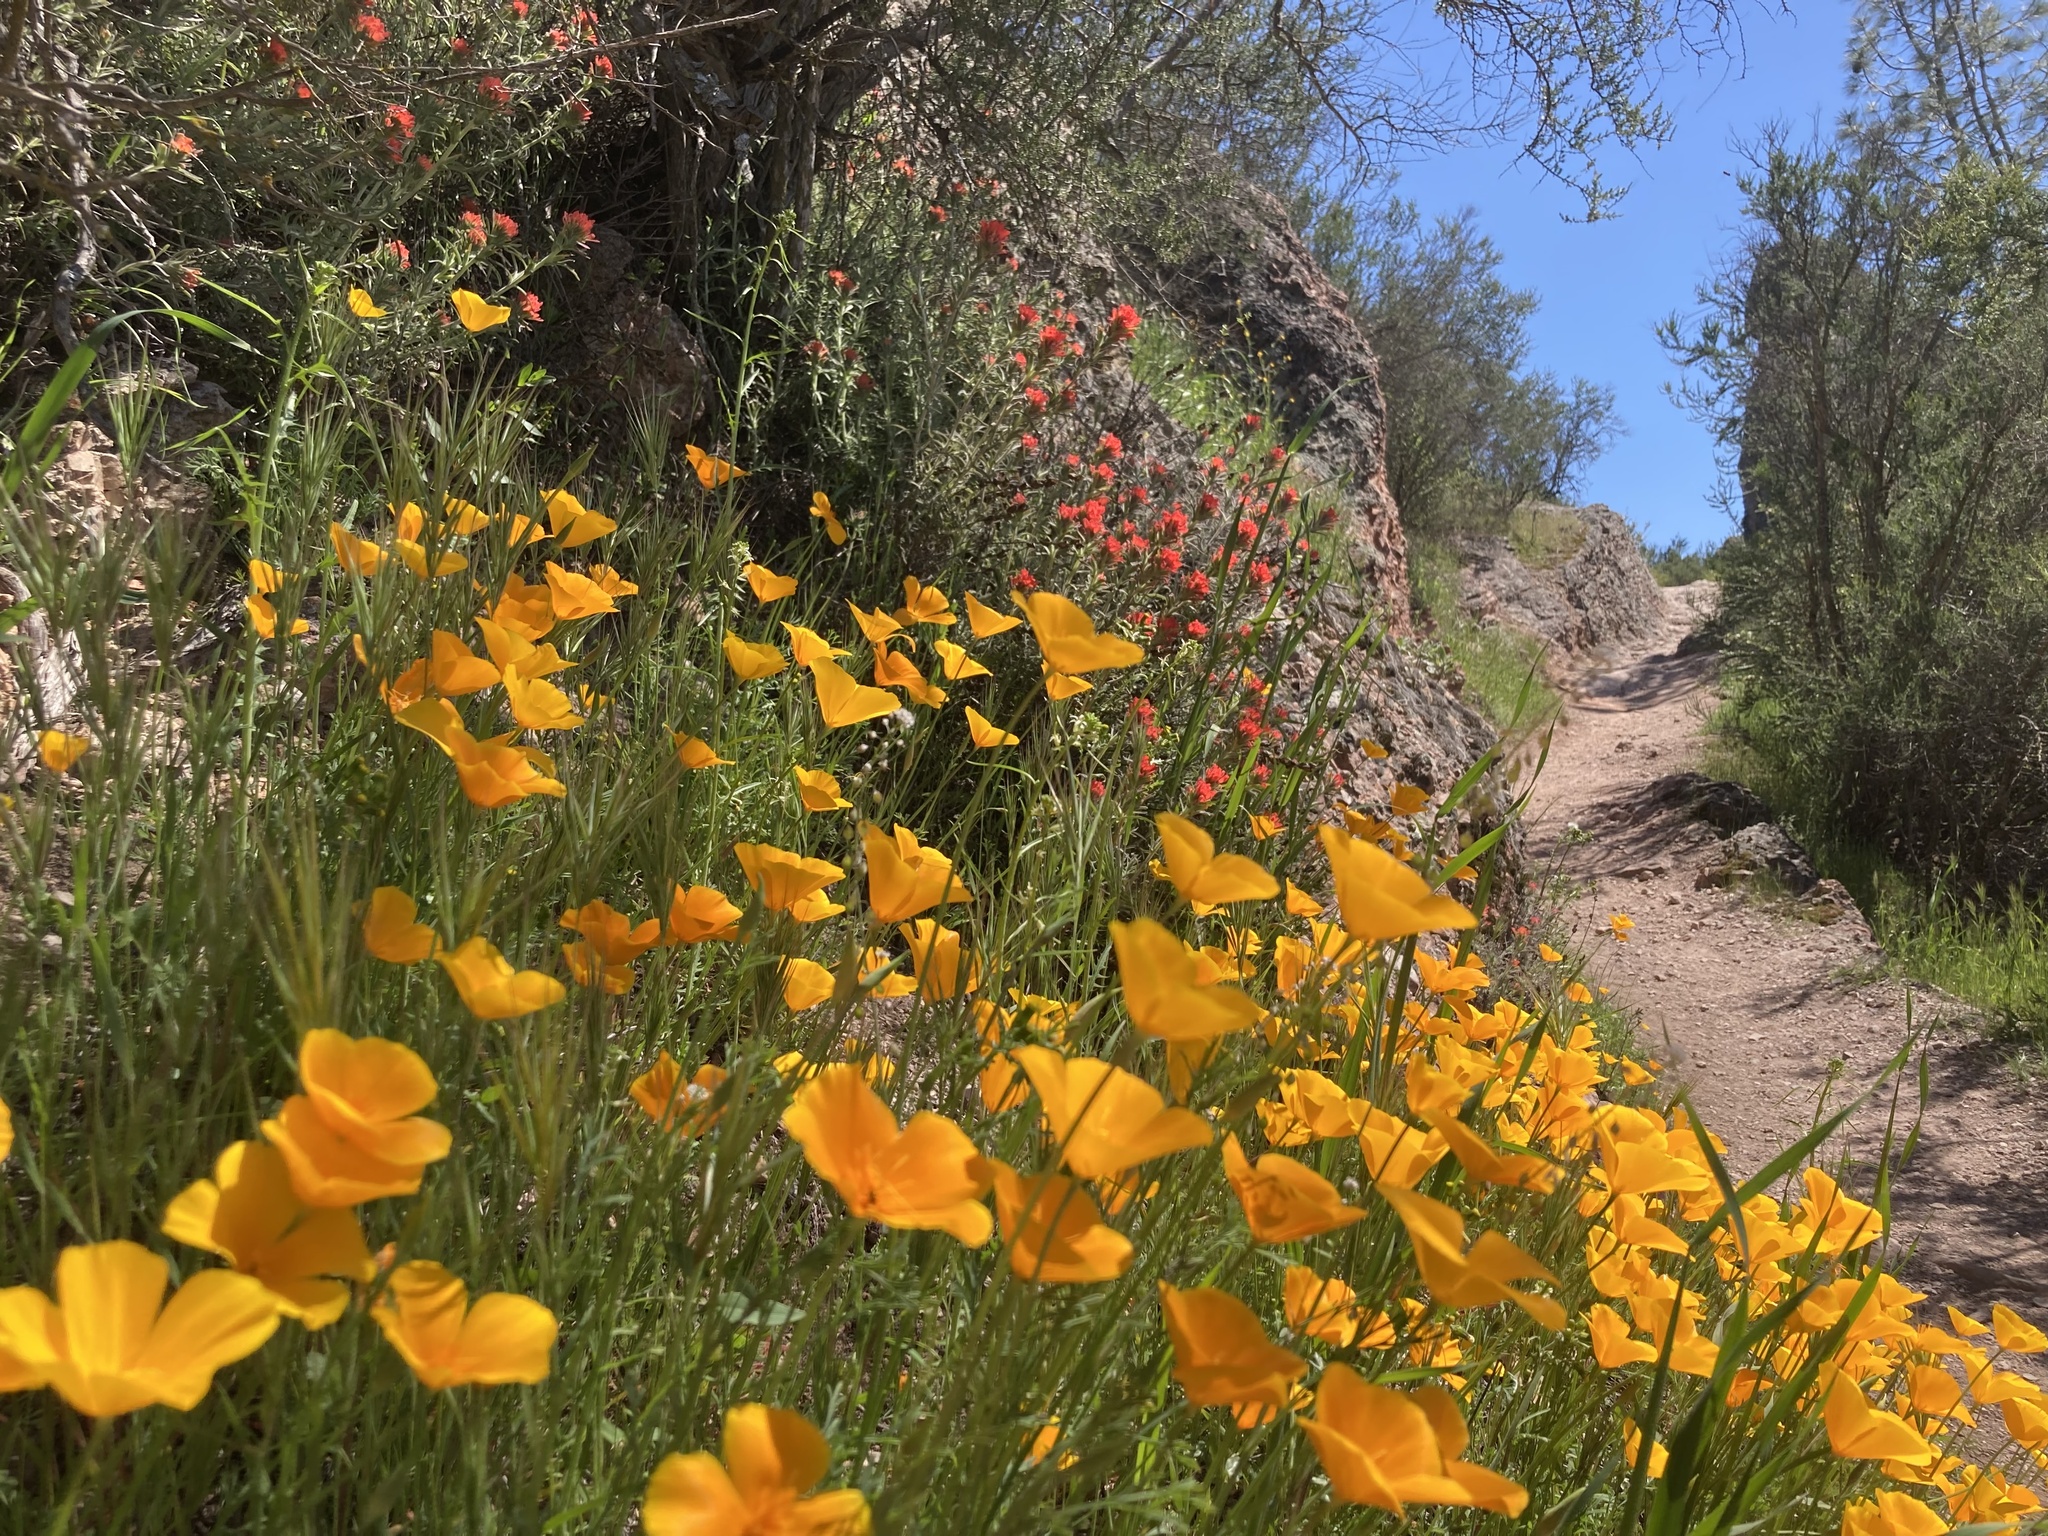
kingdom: Plantae
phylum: Tracheophyta
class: Magnoliopsida
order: Ranunculales
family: Papaveraceae
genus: Eschscholzia
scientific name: Eschscholzia californica
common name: California poppy
